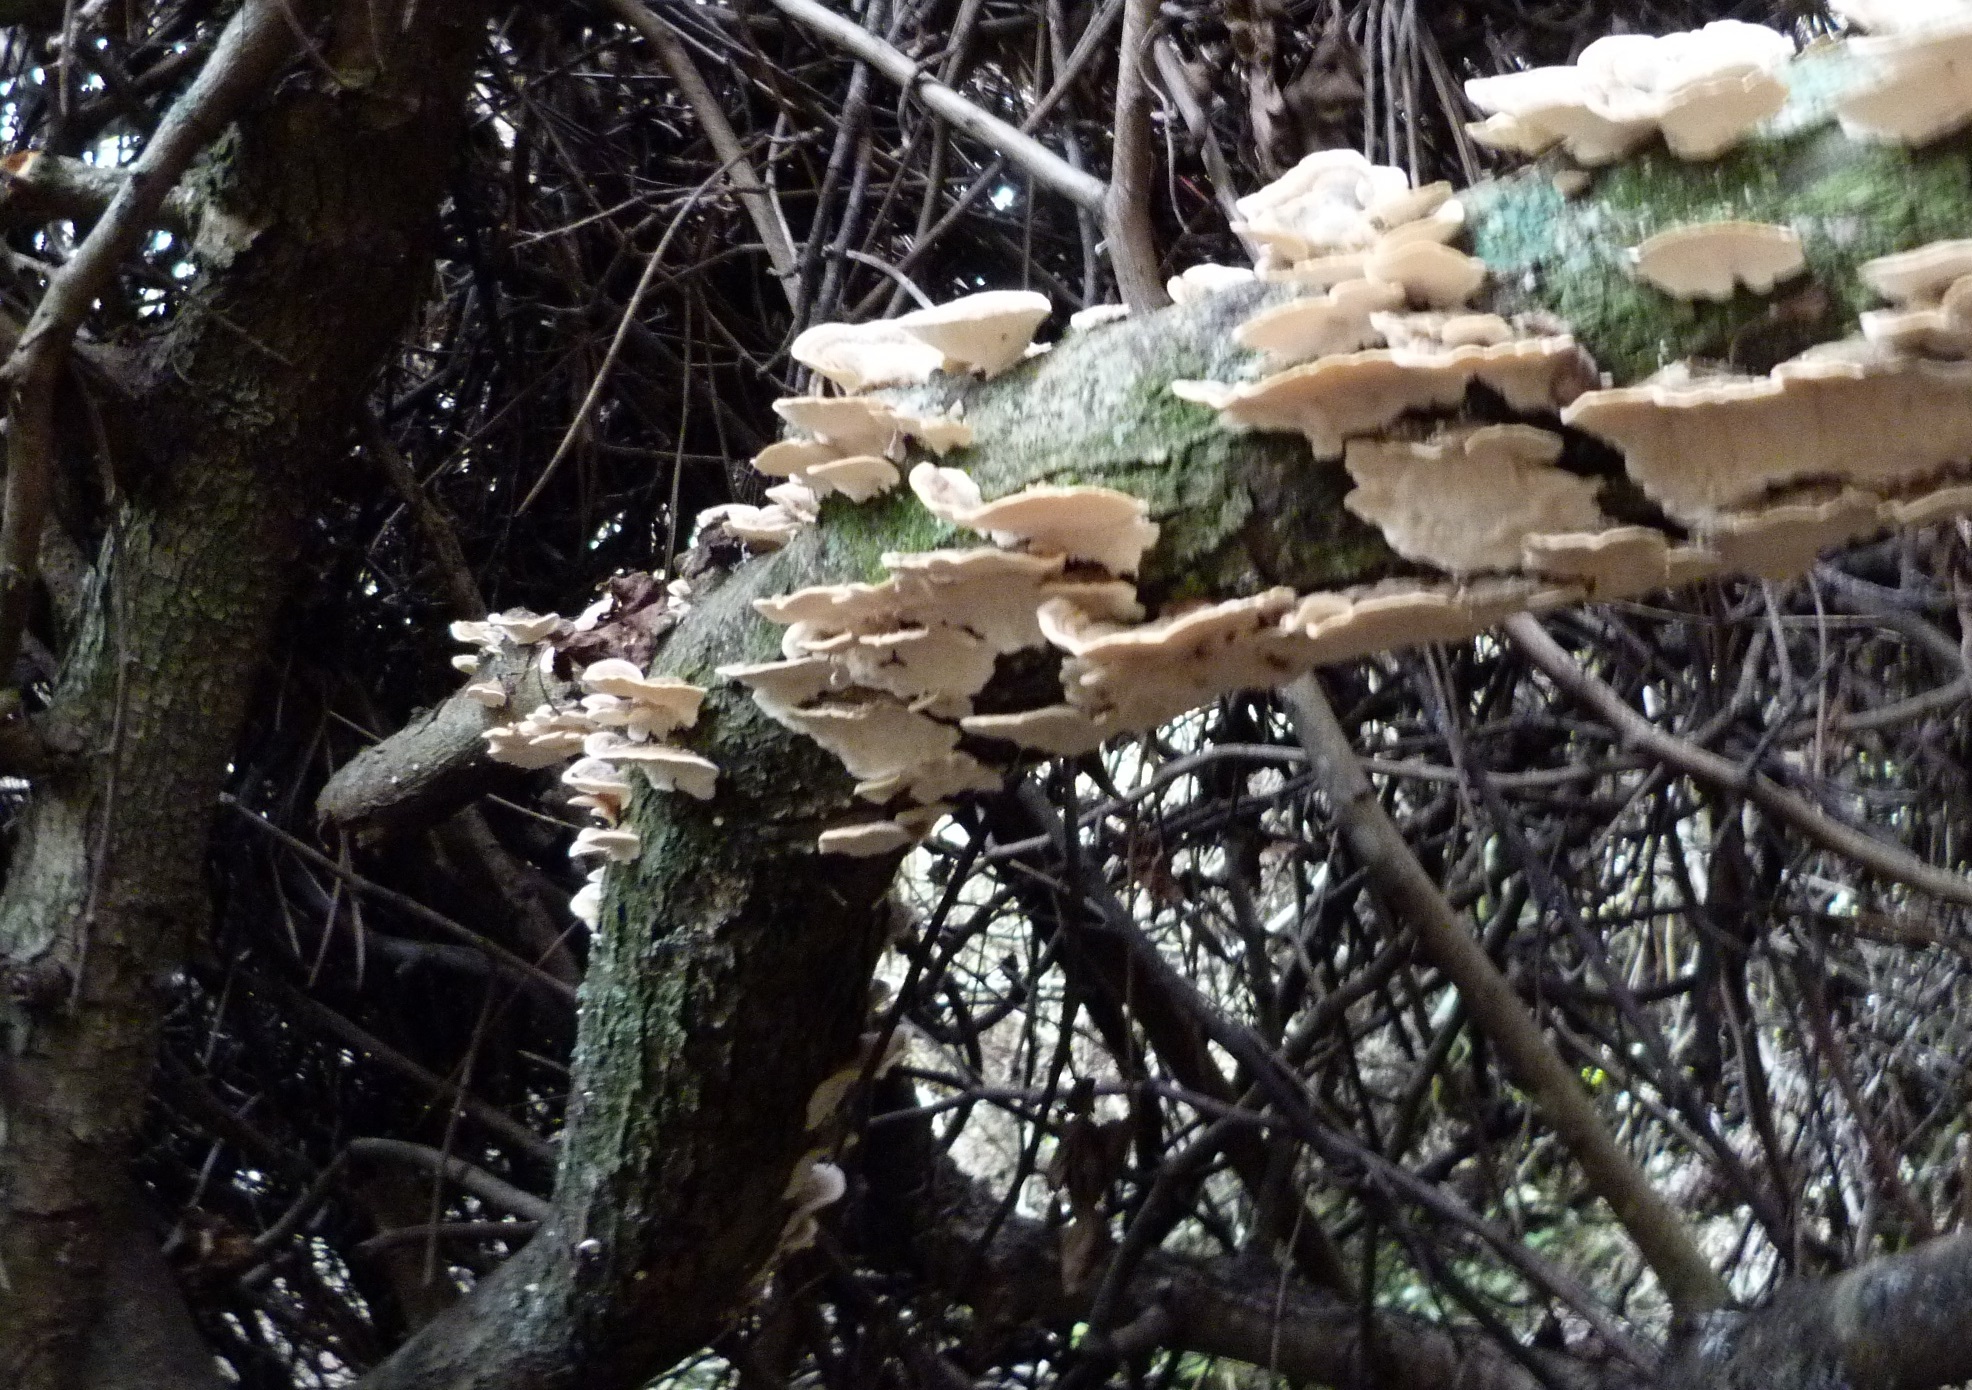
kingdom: Fungi
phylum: Basidiomycota
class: Agaricomycetes
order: Polyporales
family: Polyporaceae
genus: Trametes
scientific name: Trametes versicolor
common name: Turkeytail
